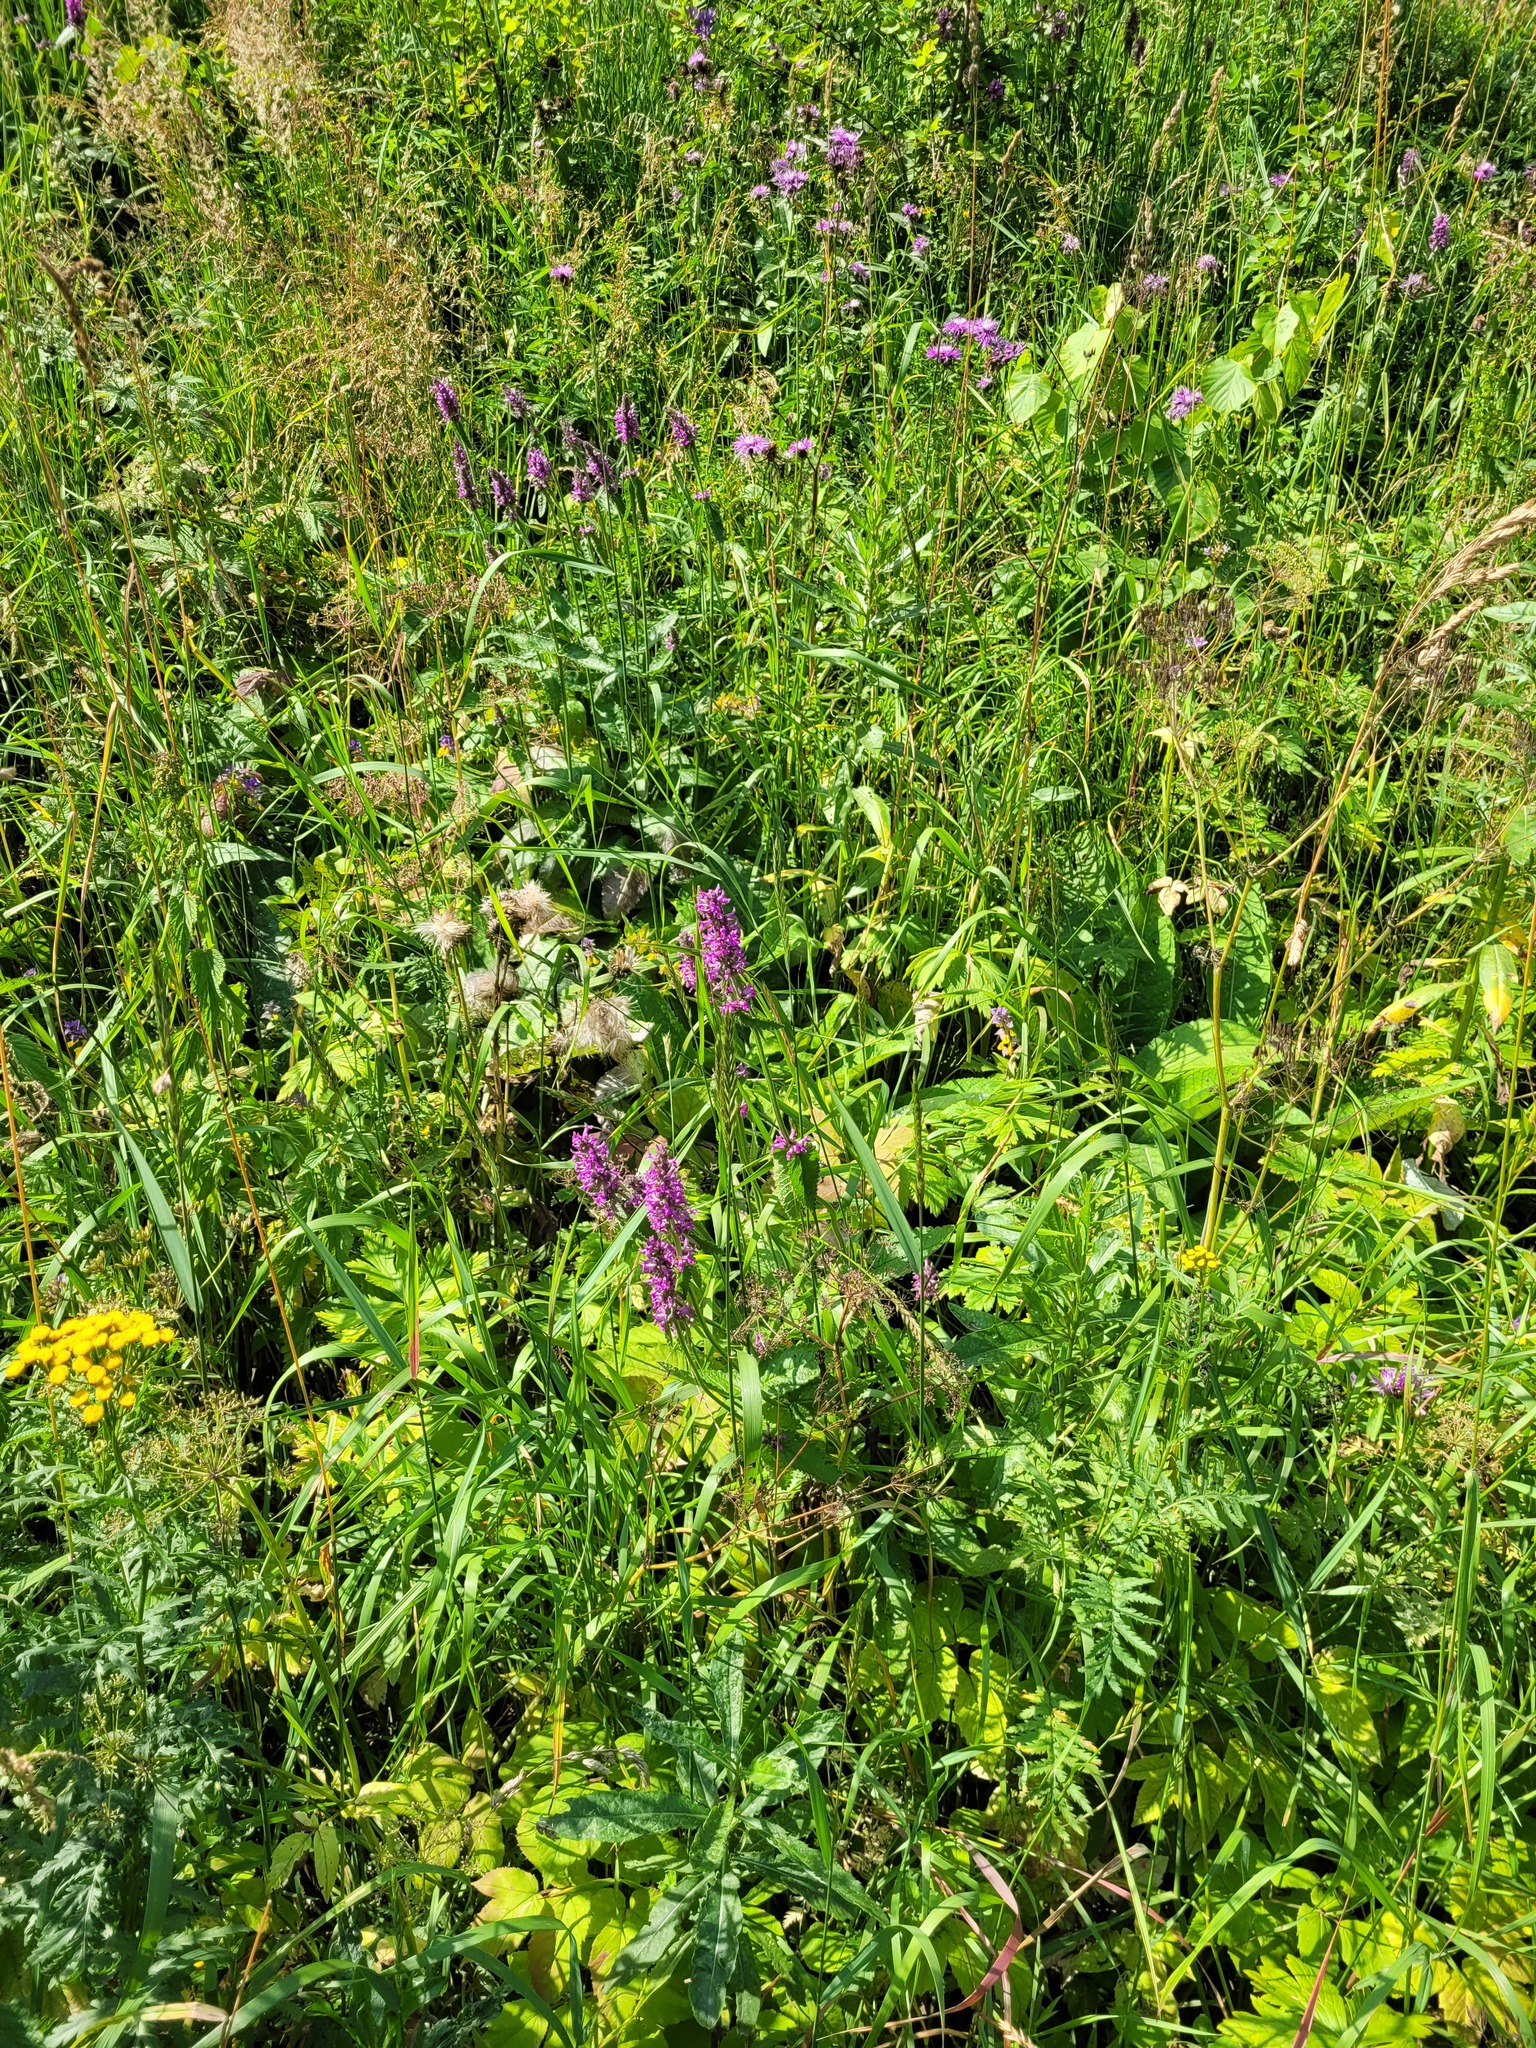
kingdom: Plantae
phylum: Tracheophyta
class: Magnoliopsida
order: Lamiales
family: Lamiaceae
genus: Betonica
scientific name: Betonica officinalis
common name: Bishop's-wort
